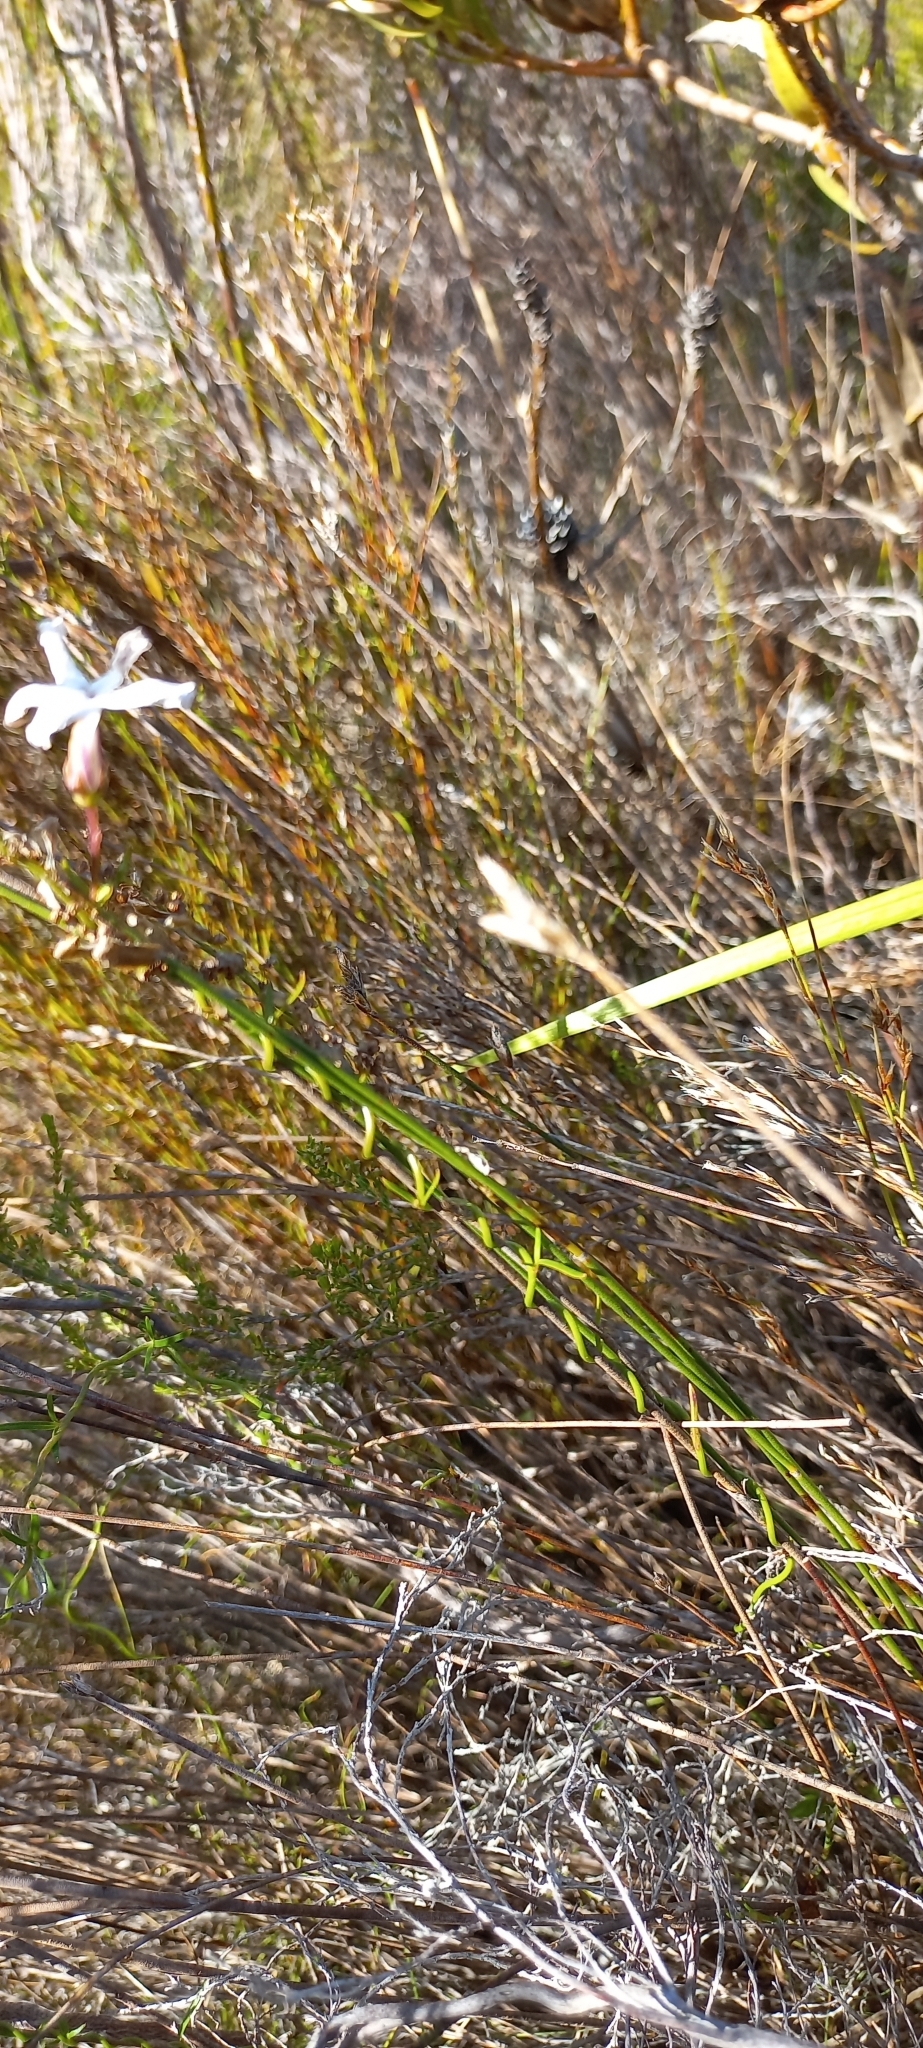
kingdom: Plantae
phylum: Tracheophyta
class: Magnoliopsida
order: Asterales
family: Campanulaceae
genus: Cyphia
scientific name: Cyphia volubilis
